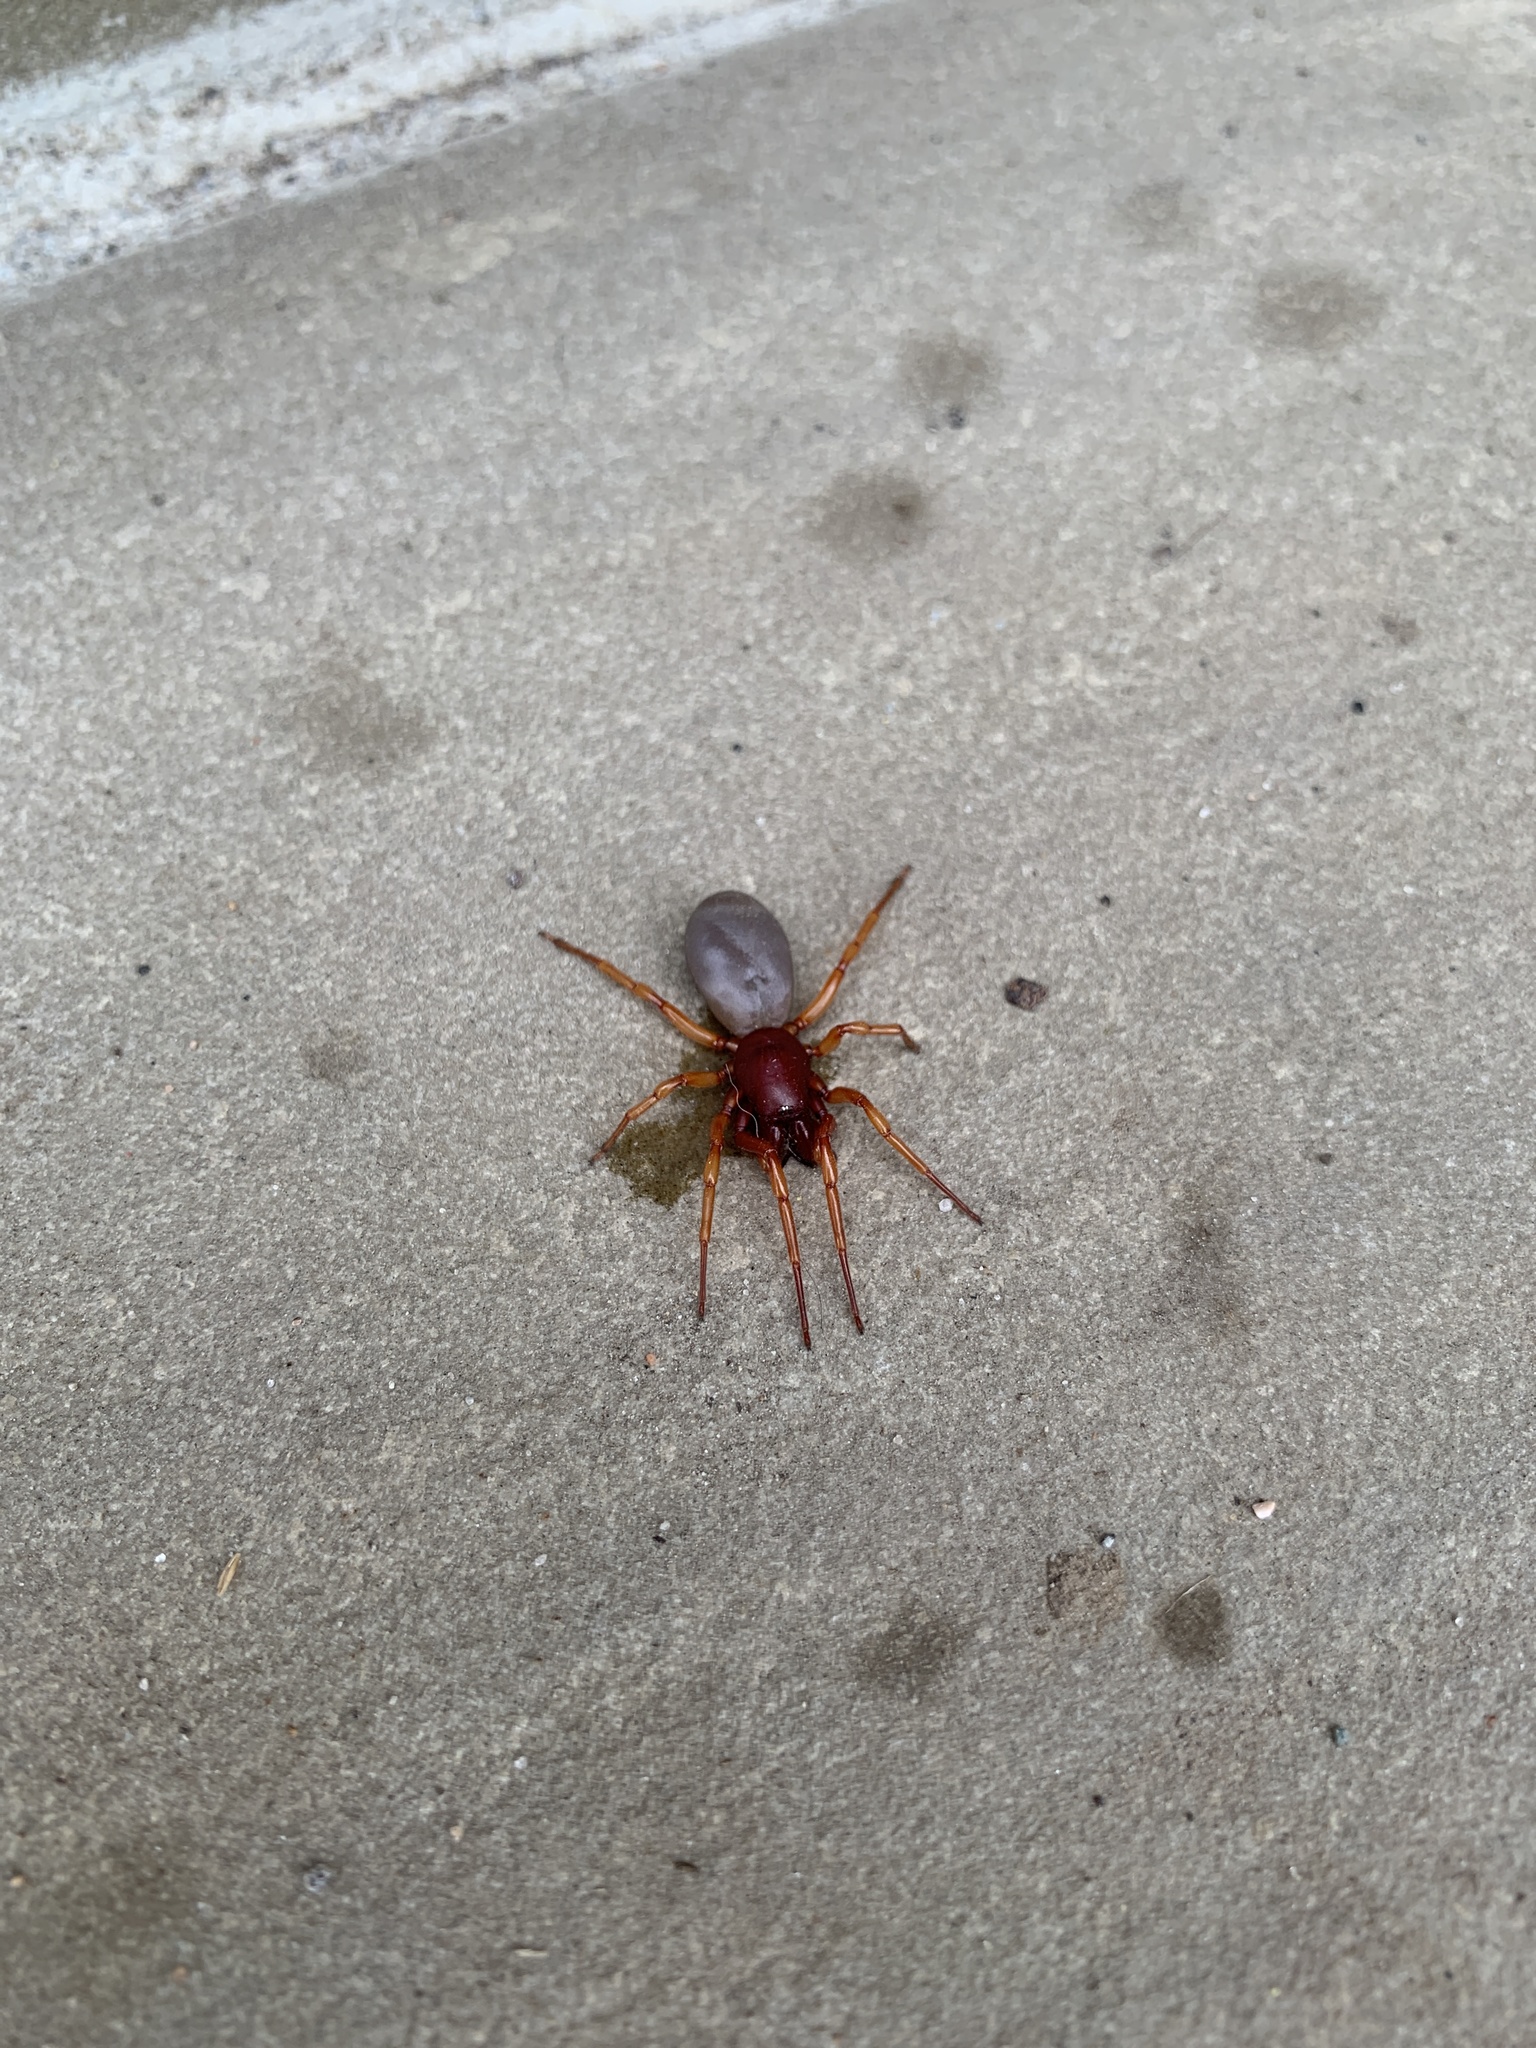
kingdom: Animalia
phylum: Arthropoda
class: Arachnida
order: Araneae
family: Dysderidae
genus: Dysdera
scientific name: Dysdera crocata
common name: Woodlouse spider
